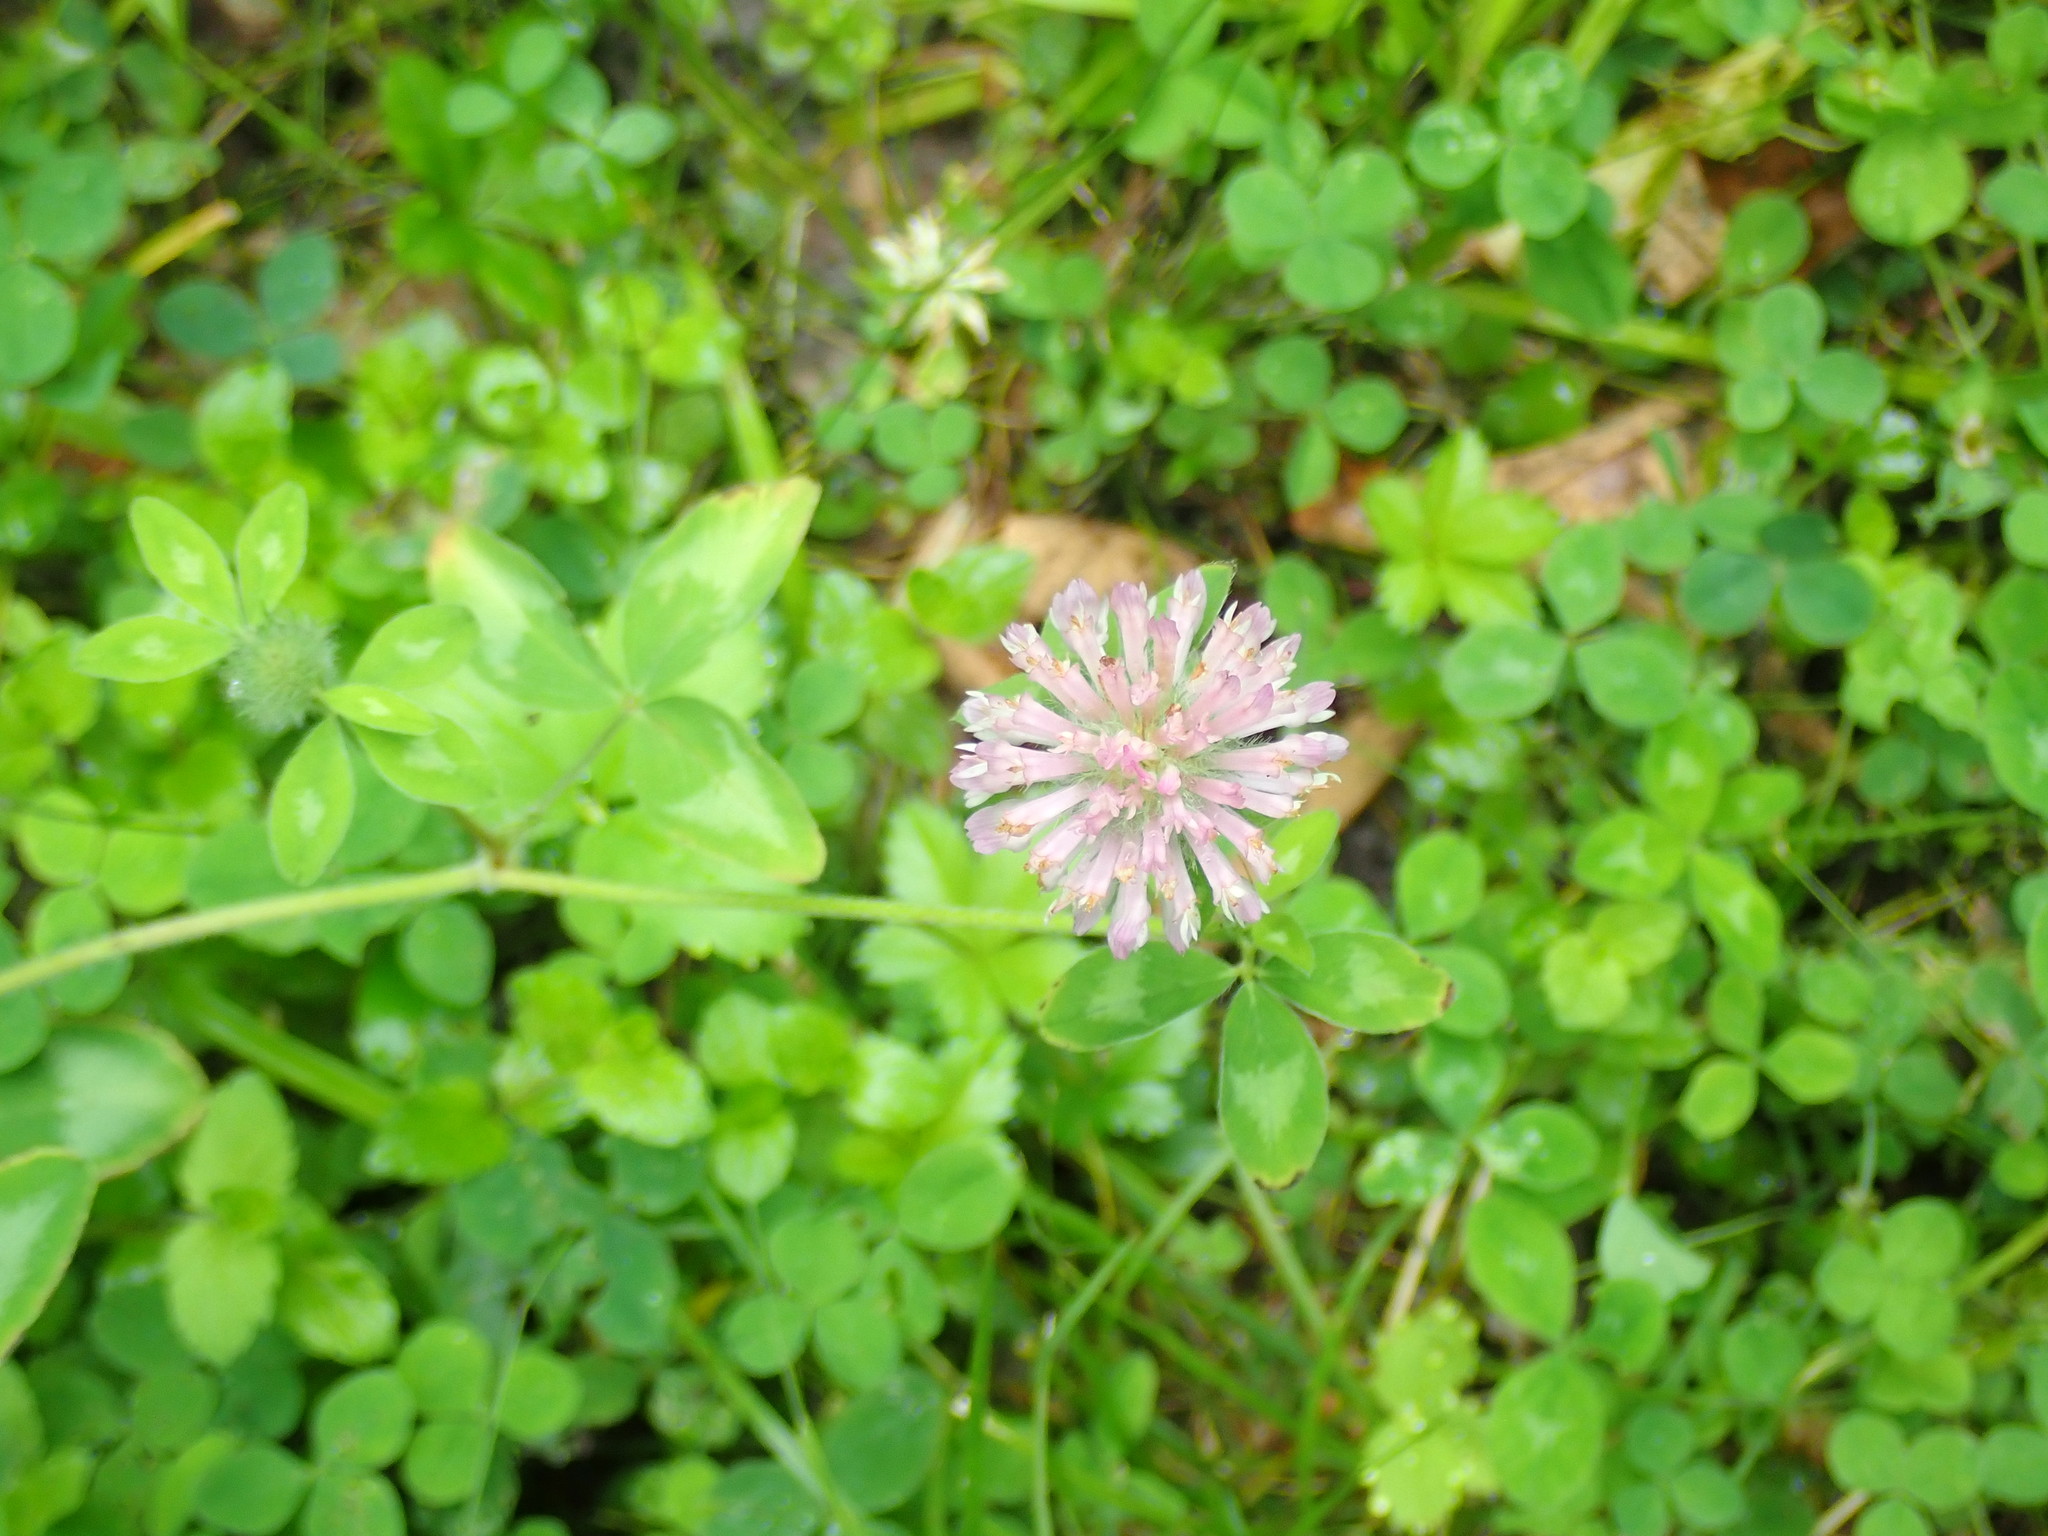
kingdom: Plantae
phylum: Tracheophyta
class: Magnoliopsida
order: Fabales
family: Fabaceae
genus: Trifolium
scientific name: Trifolium pratense
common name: Red clover
